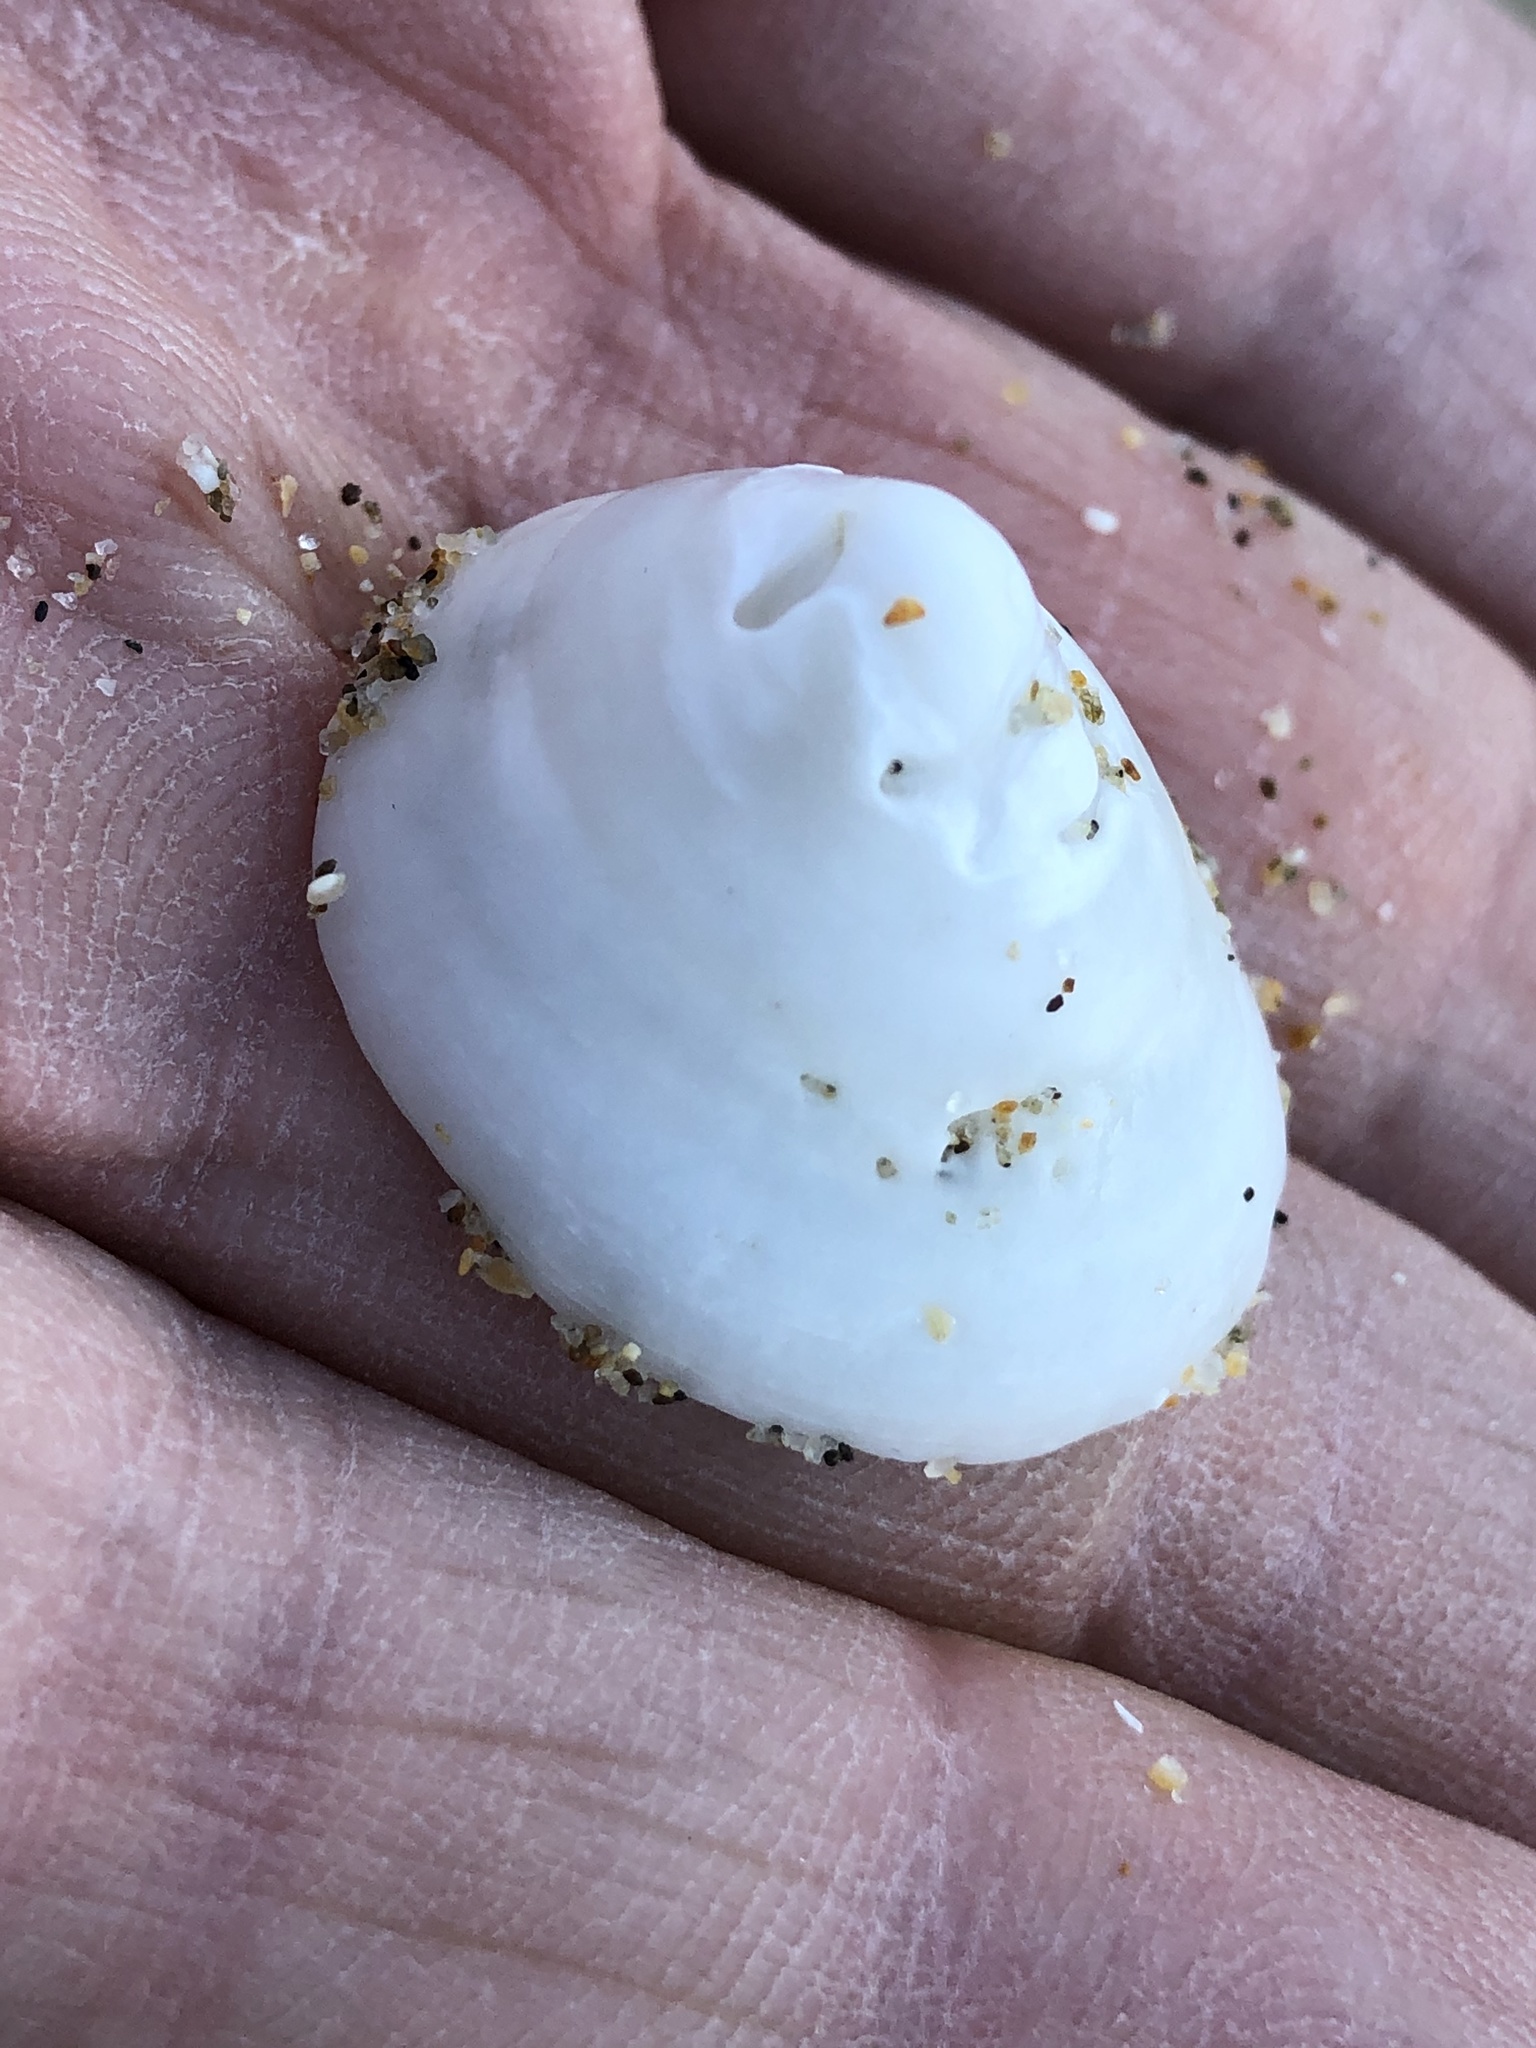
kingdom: Animalia
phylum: Mollusca
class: Gastropoda
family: Acmaeidae
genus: Acmaea
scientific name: Acmaea mitra
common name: Pacific white cap limpet
